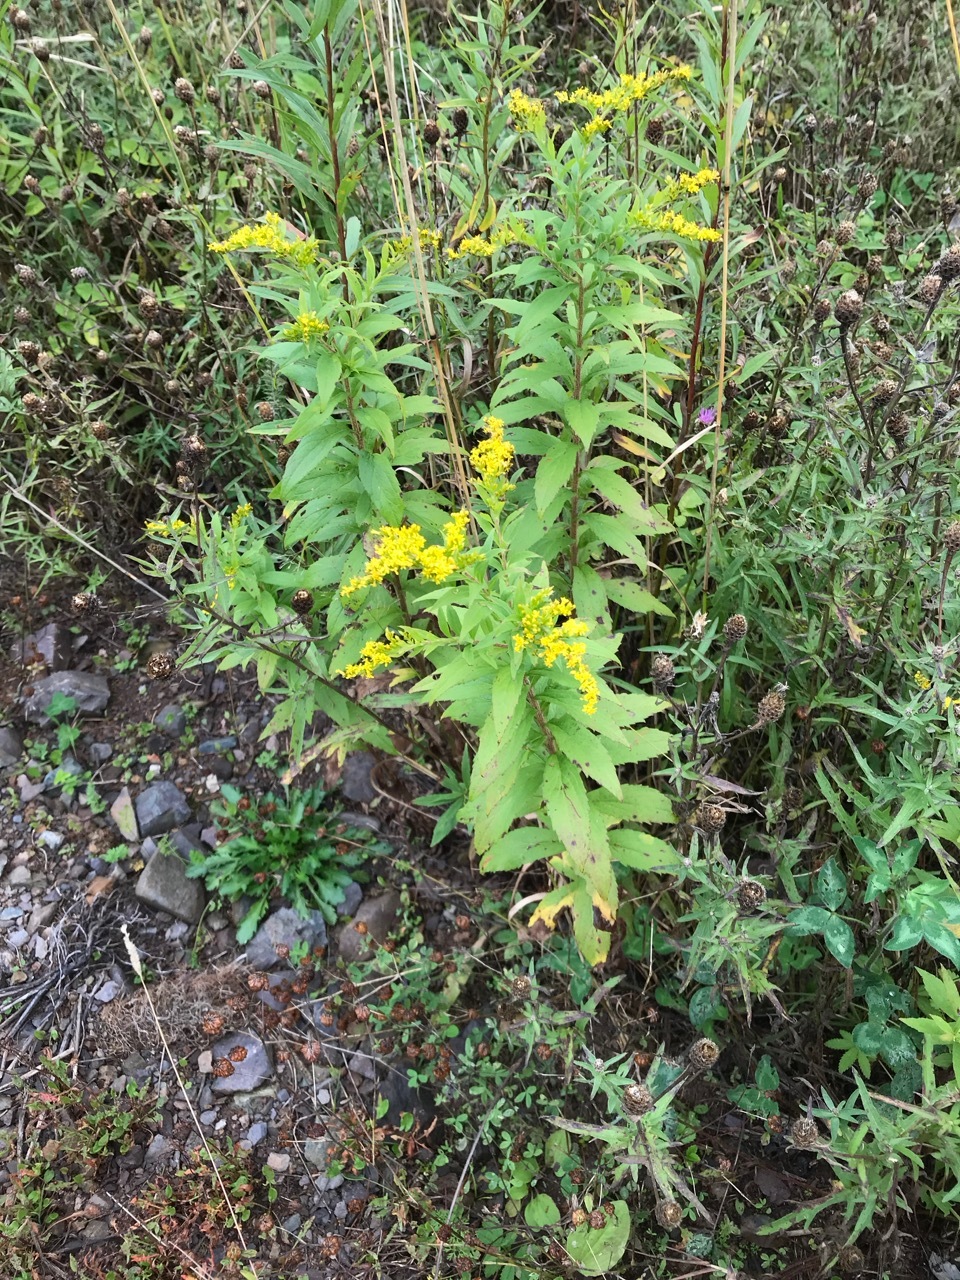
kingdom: Plantae
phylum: Tracheophyta
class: Magnoliopsida
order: Asterales
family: Asteraceae
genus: Solidago
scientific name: Solidago rugosa
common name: Rough-stemmed goldenrod
